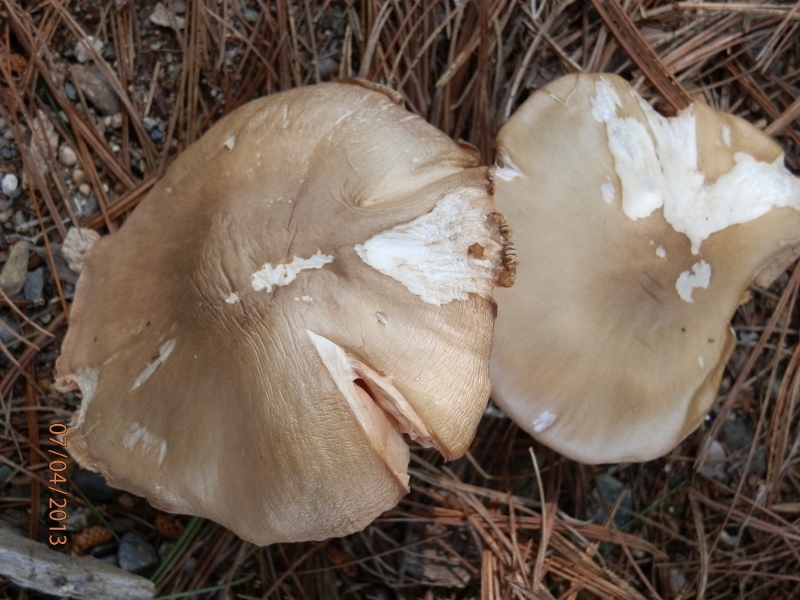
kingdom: Fungi
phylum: Basidiomycota
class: Agaricomycetes
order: Agaricales
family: Pluteaceae
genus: Pluteus
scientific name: Pluteus cervinus
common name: Deer shield
